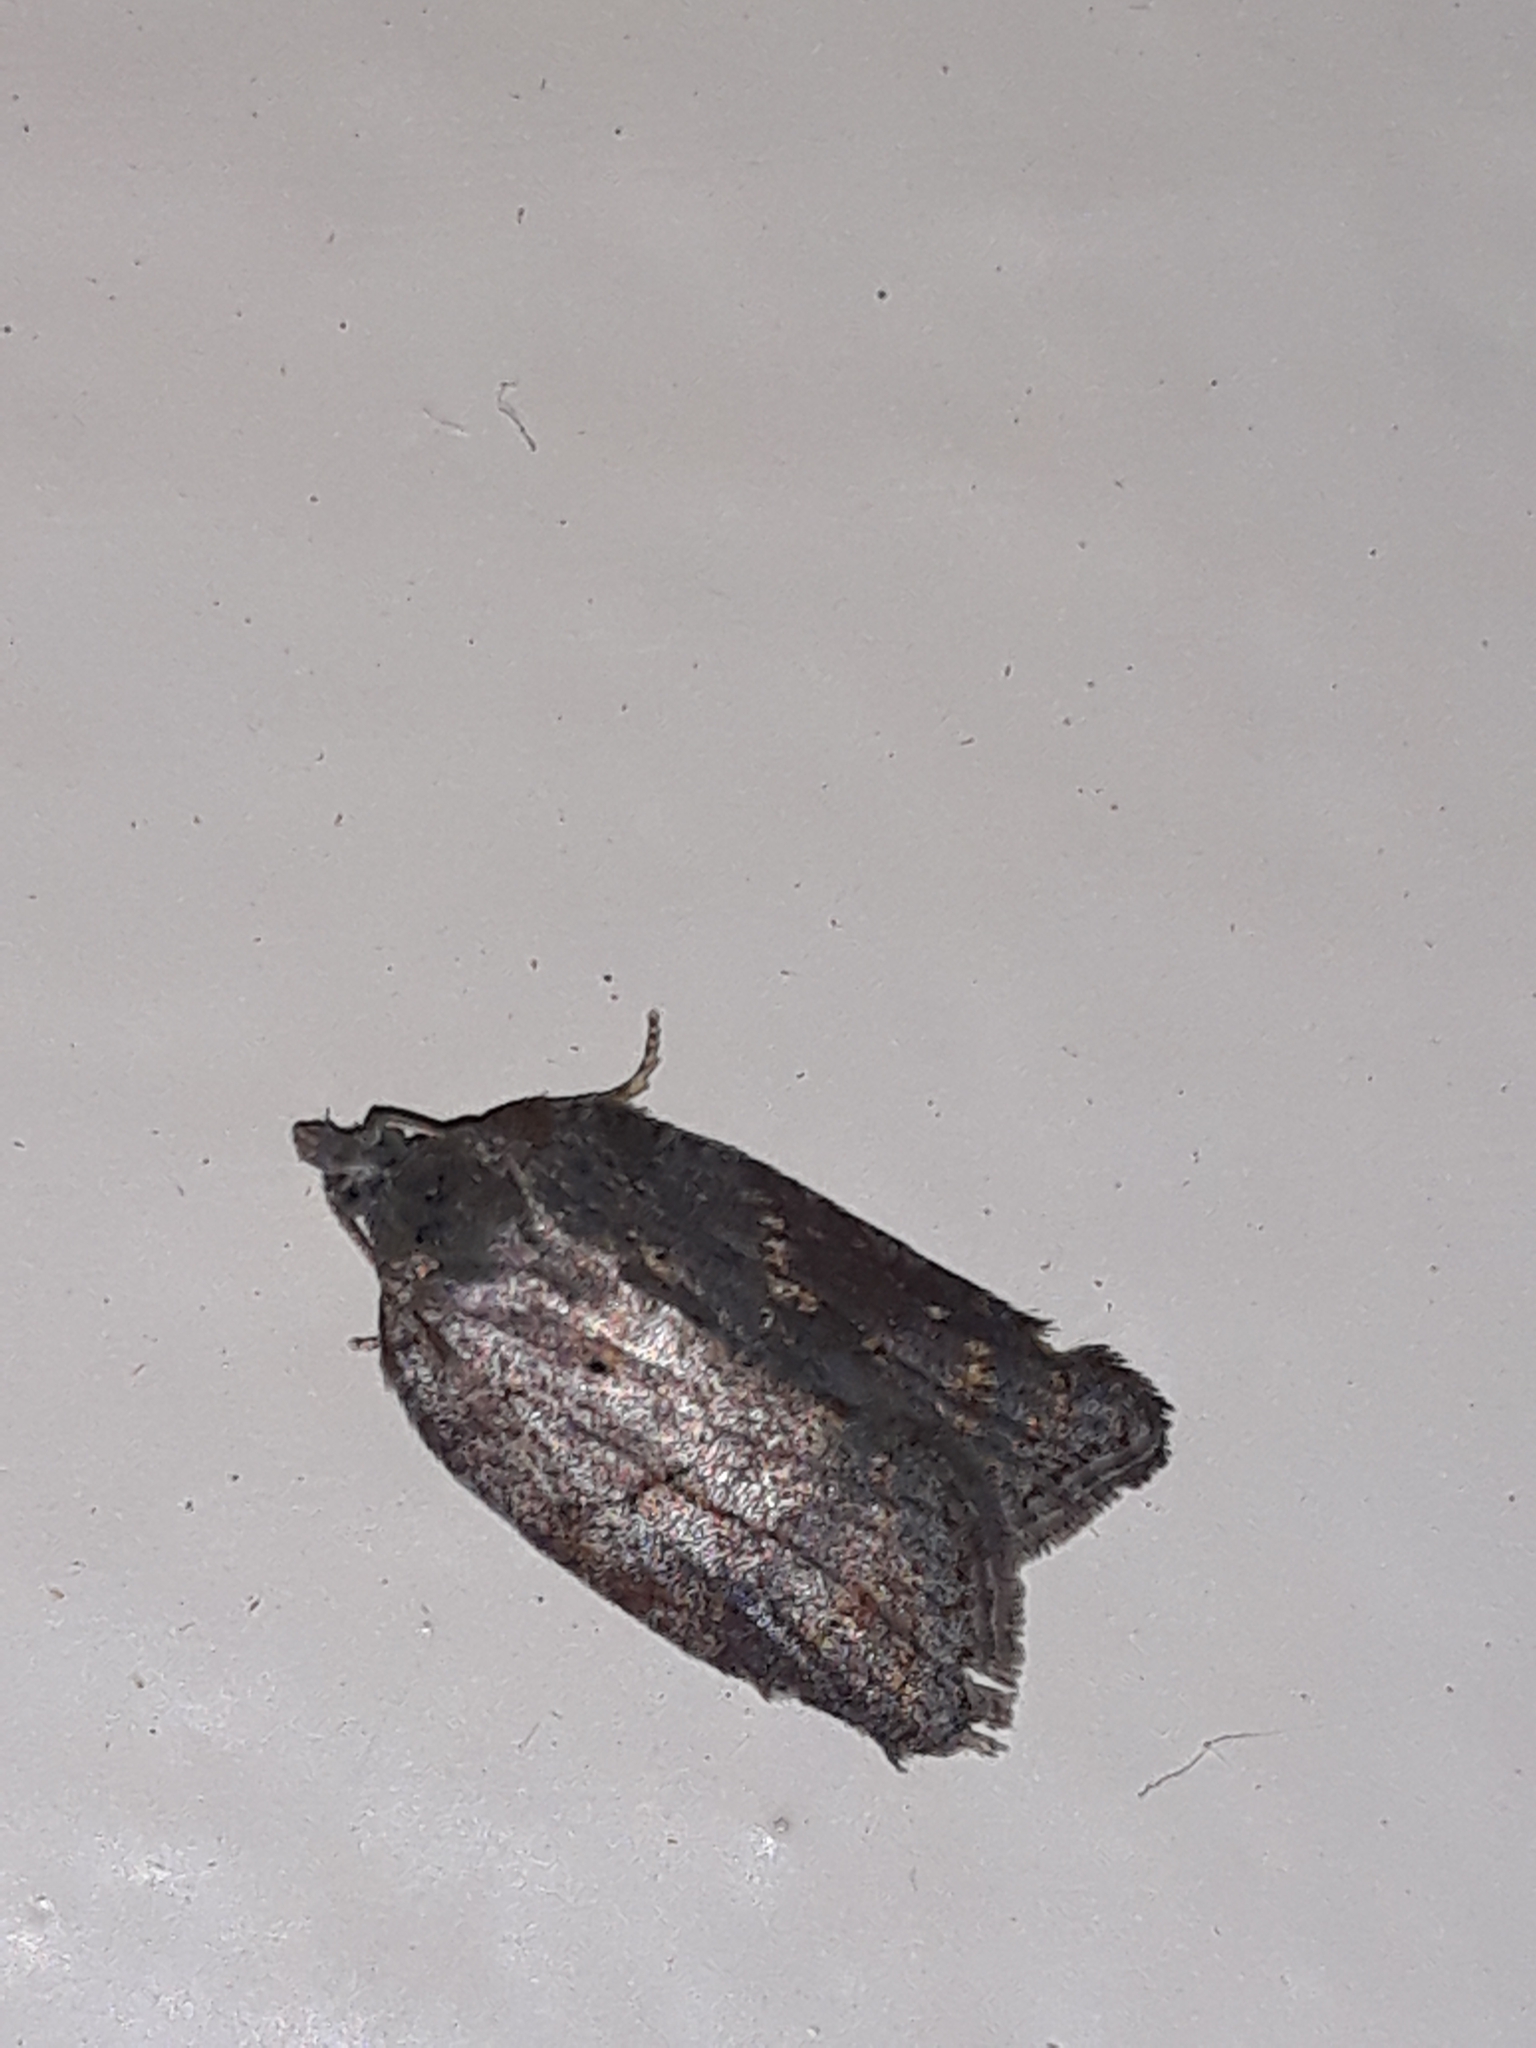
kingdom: Animalia
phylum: Arthropoda
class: Insecta
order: Lepidoptera
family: Tortricidae
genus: Acleris
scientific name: Acleris sparsana
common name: Ashy button
